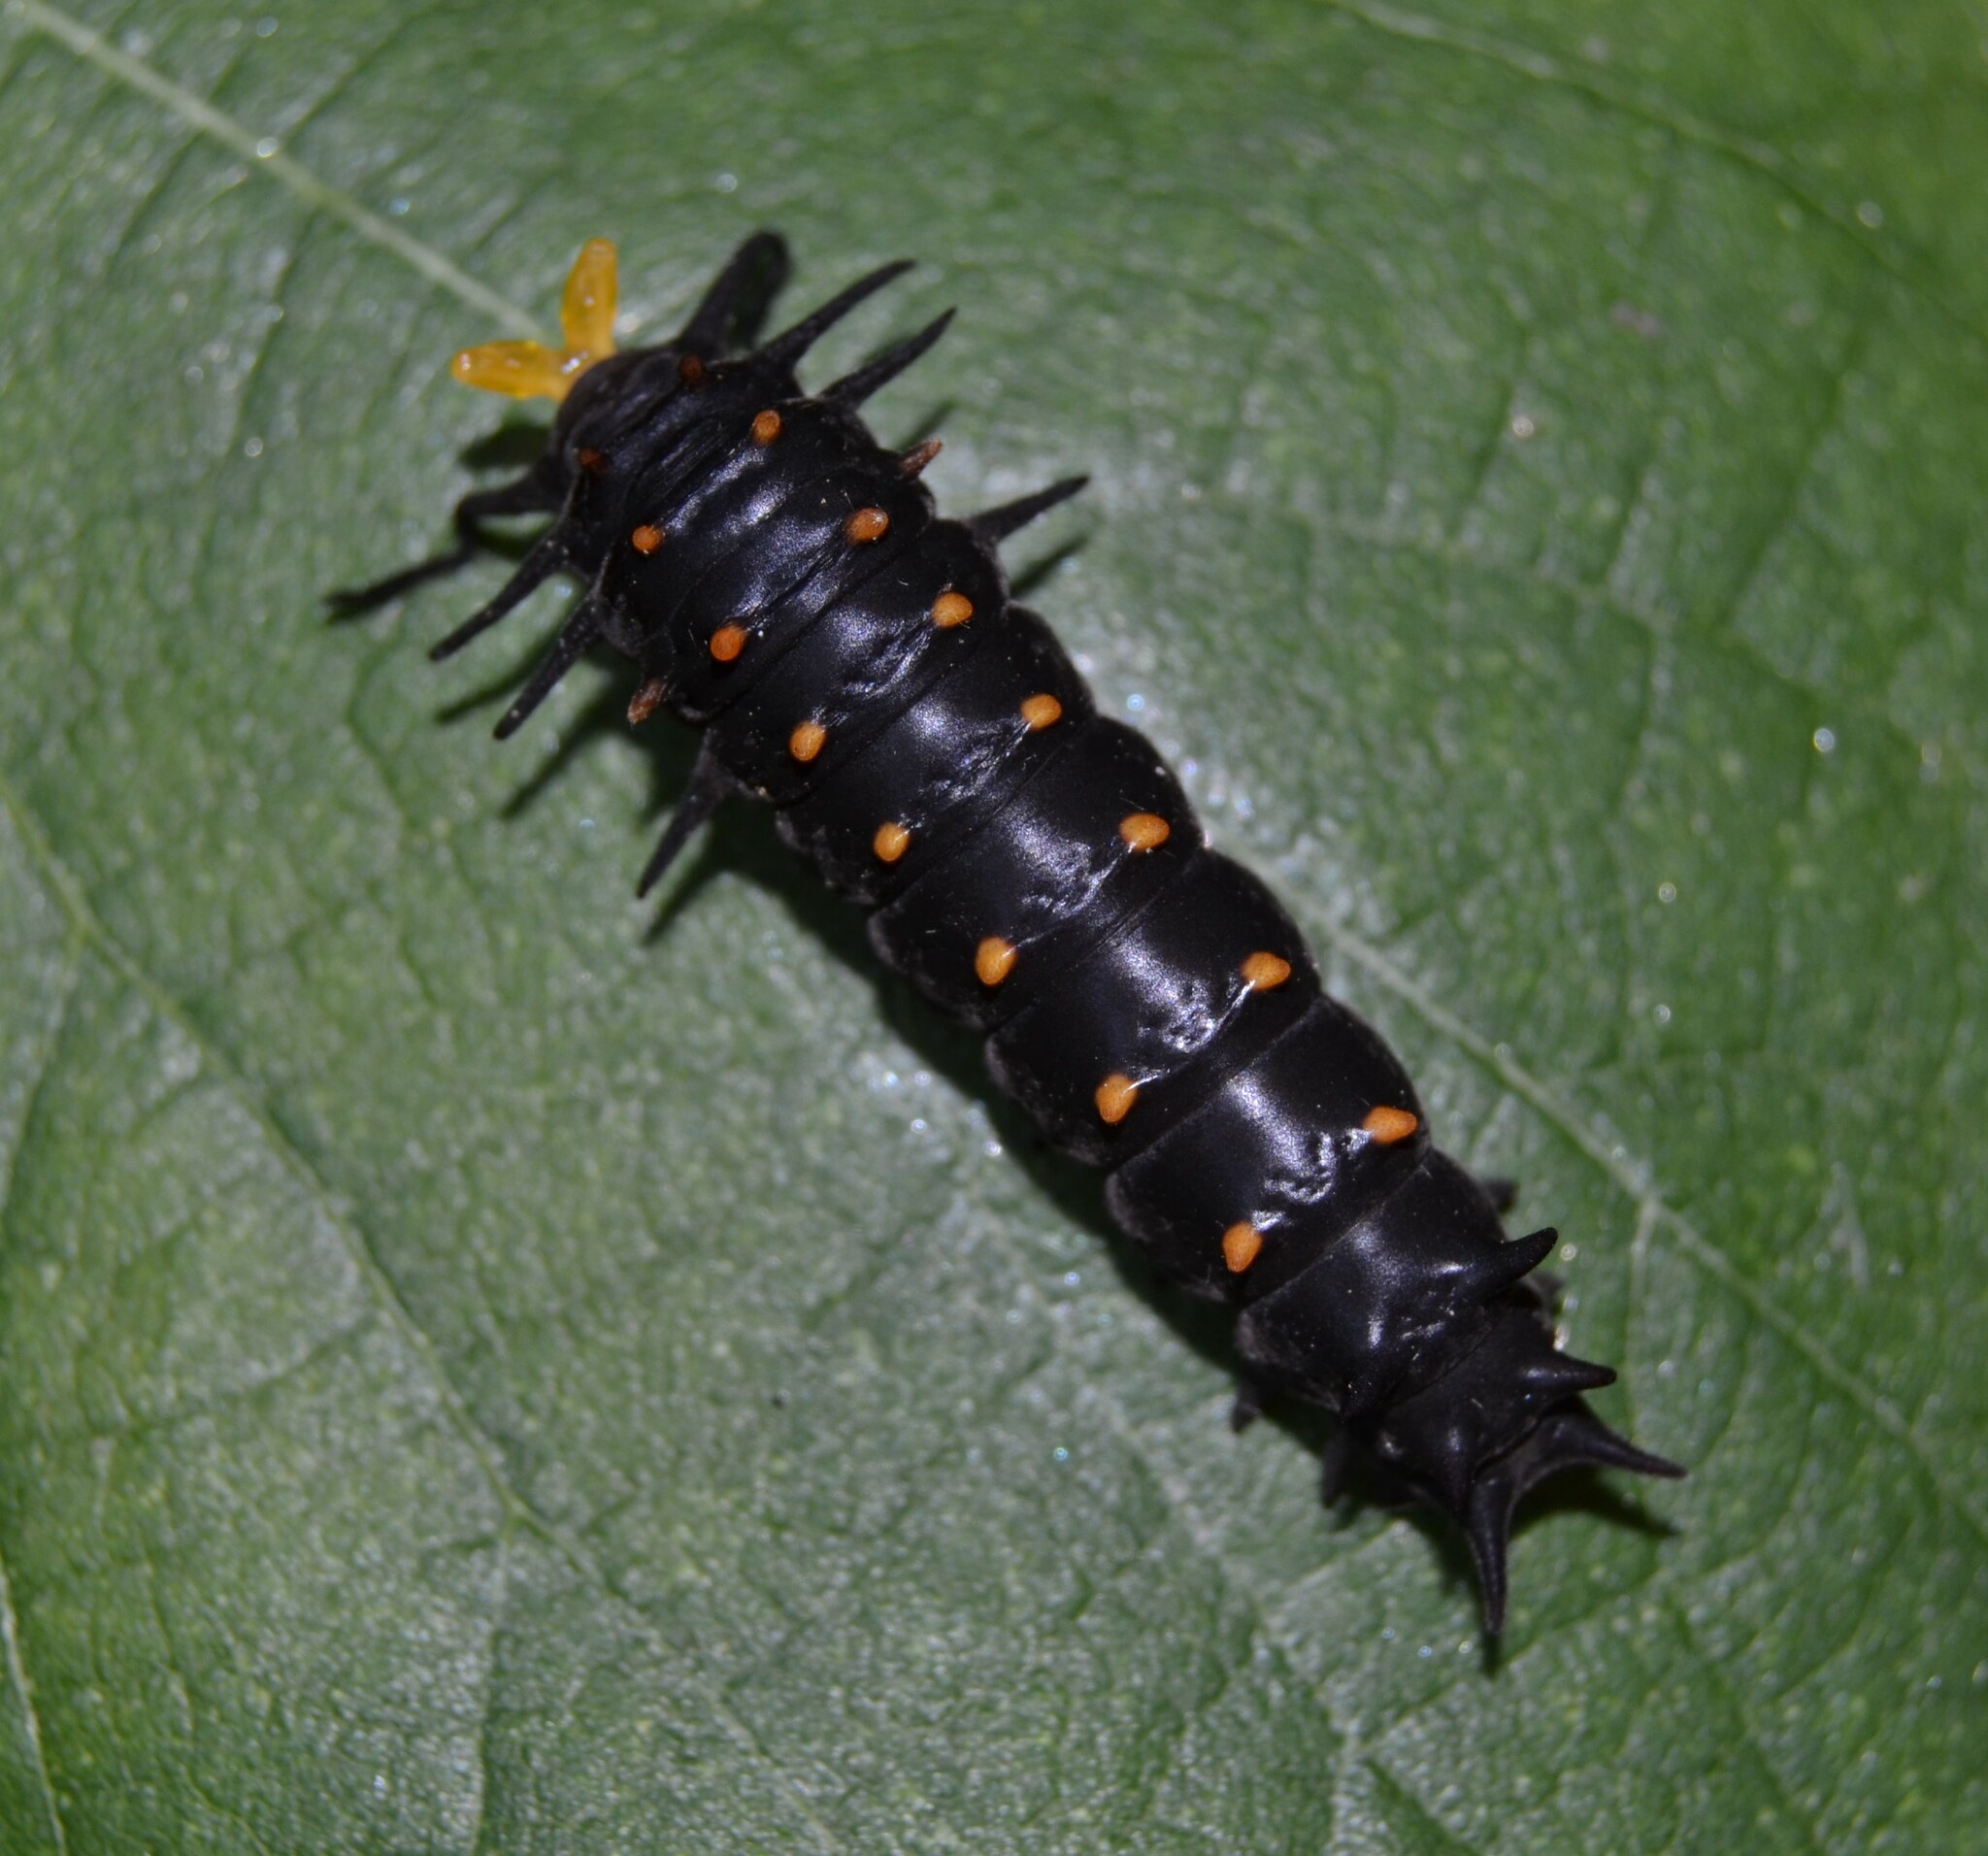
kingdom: Animalia
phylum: Arthropoda
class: Insecta
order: Lepidoptera
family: Papilionidae
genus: Battus
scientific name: Battus philenor
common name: Pipevine swallowtail
